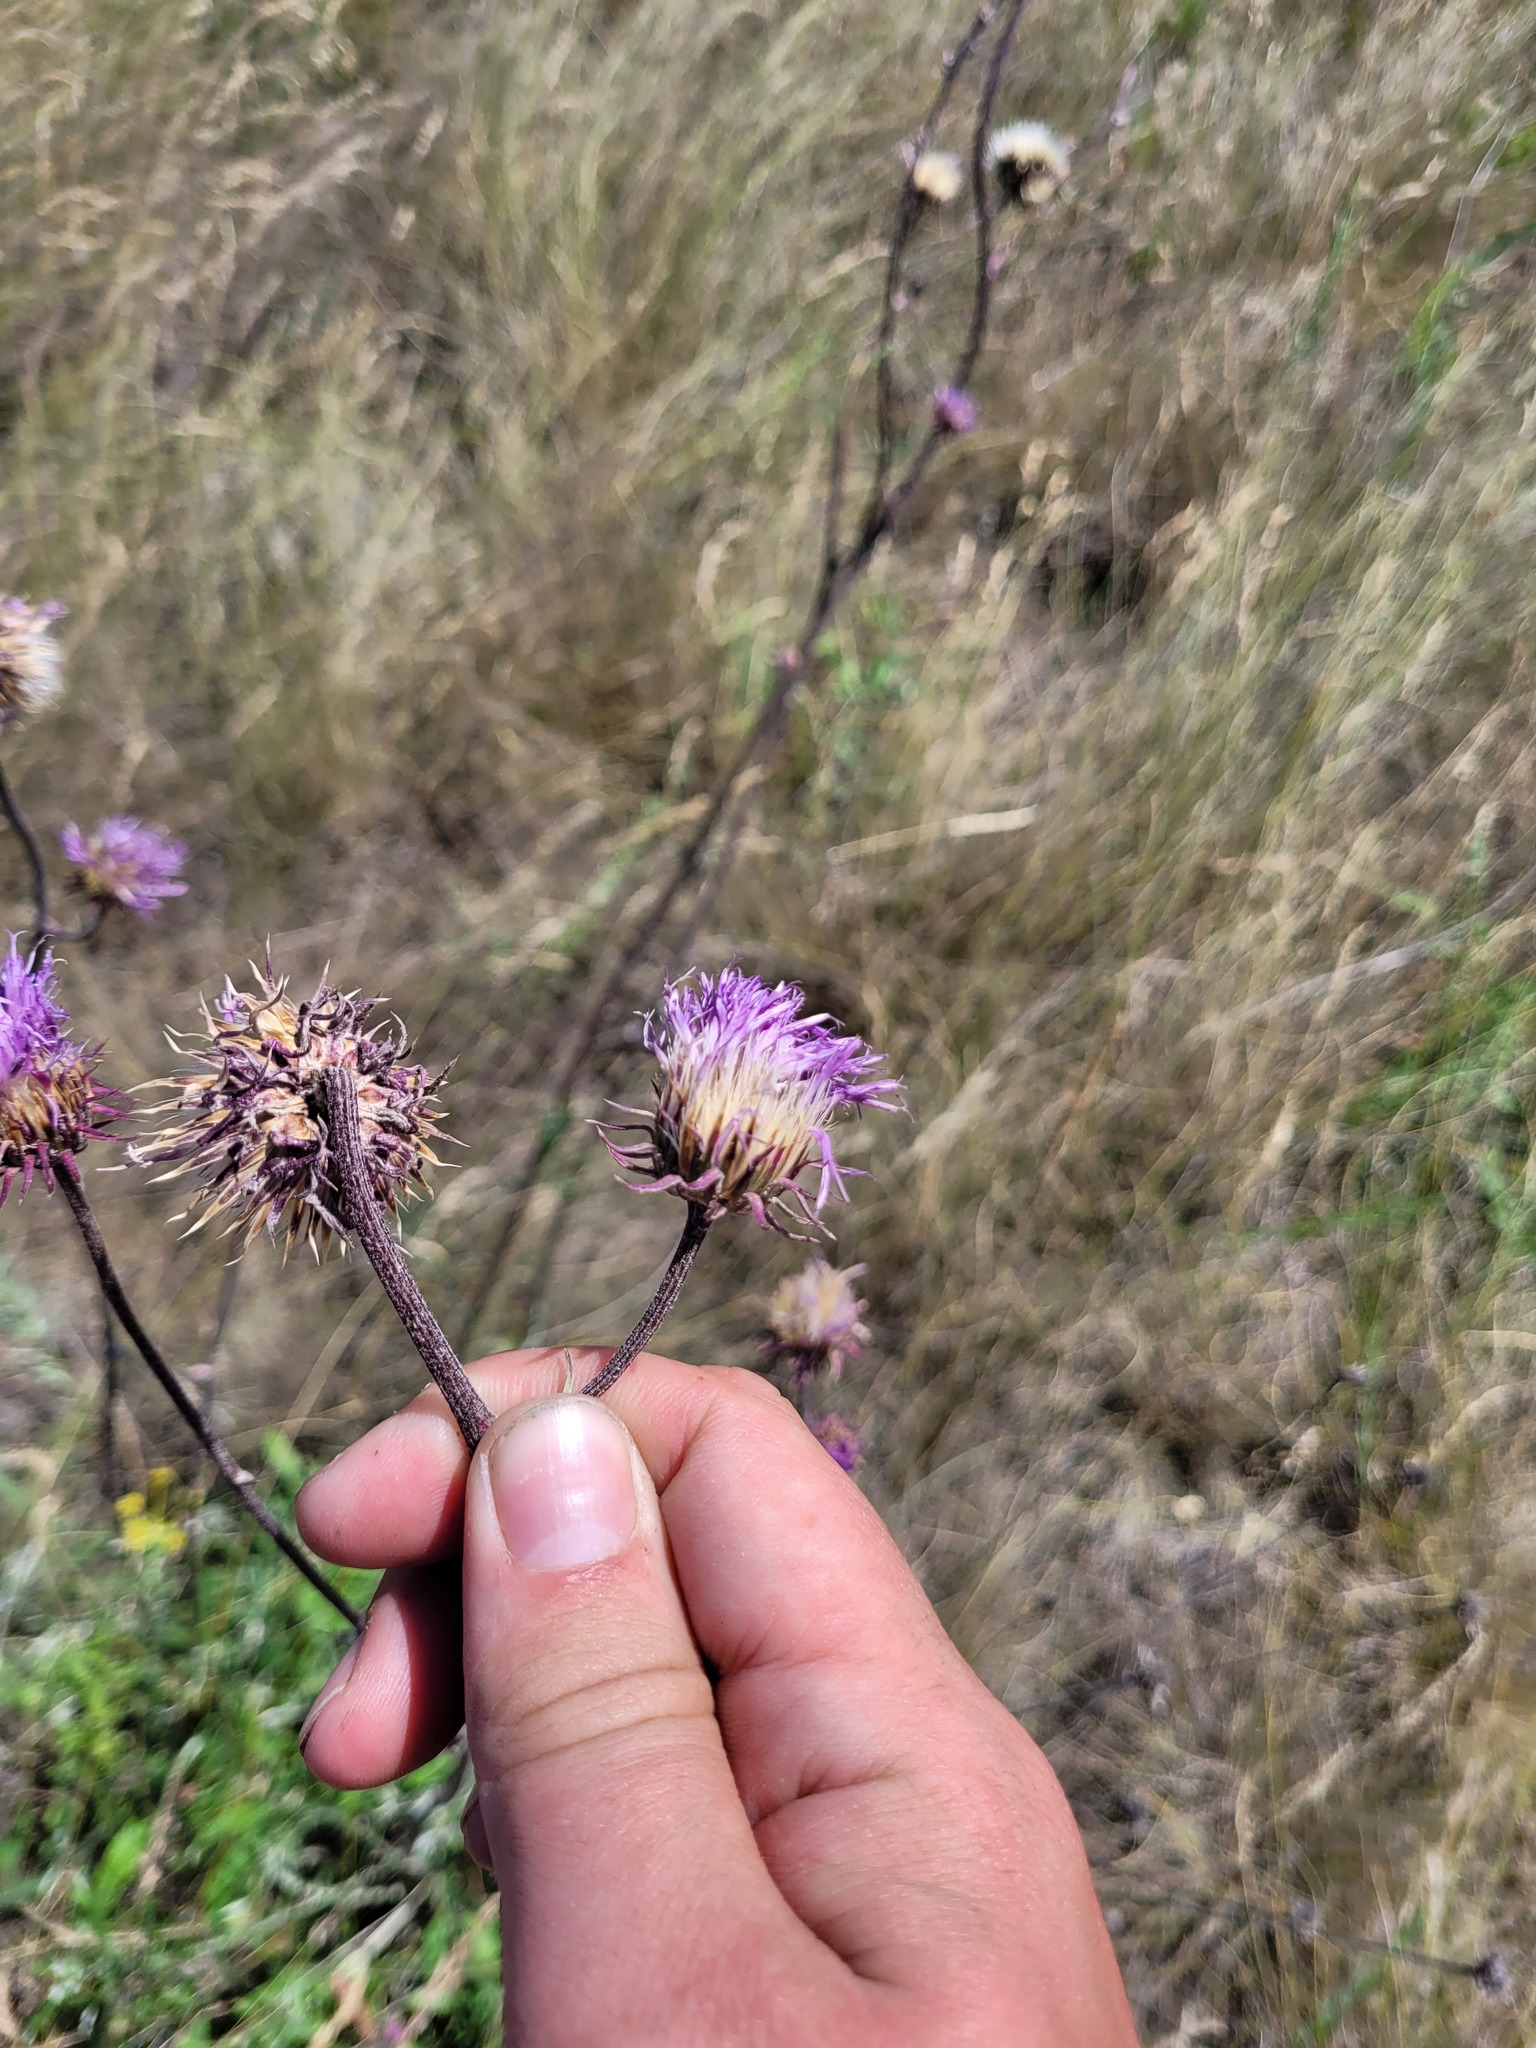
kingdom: Plantae
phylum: Tracheophyta
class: Magnoliopsida
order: Asterales
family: Asteraceae
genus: Jurinea
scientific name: Jurinea cyanoides
